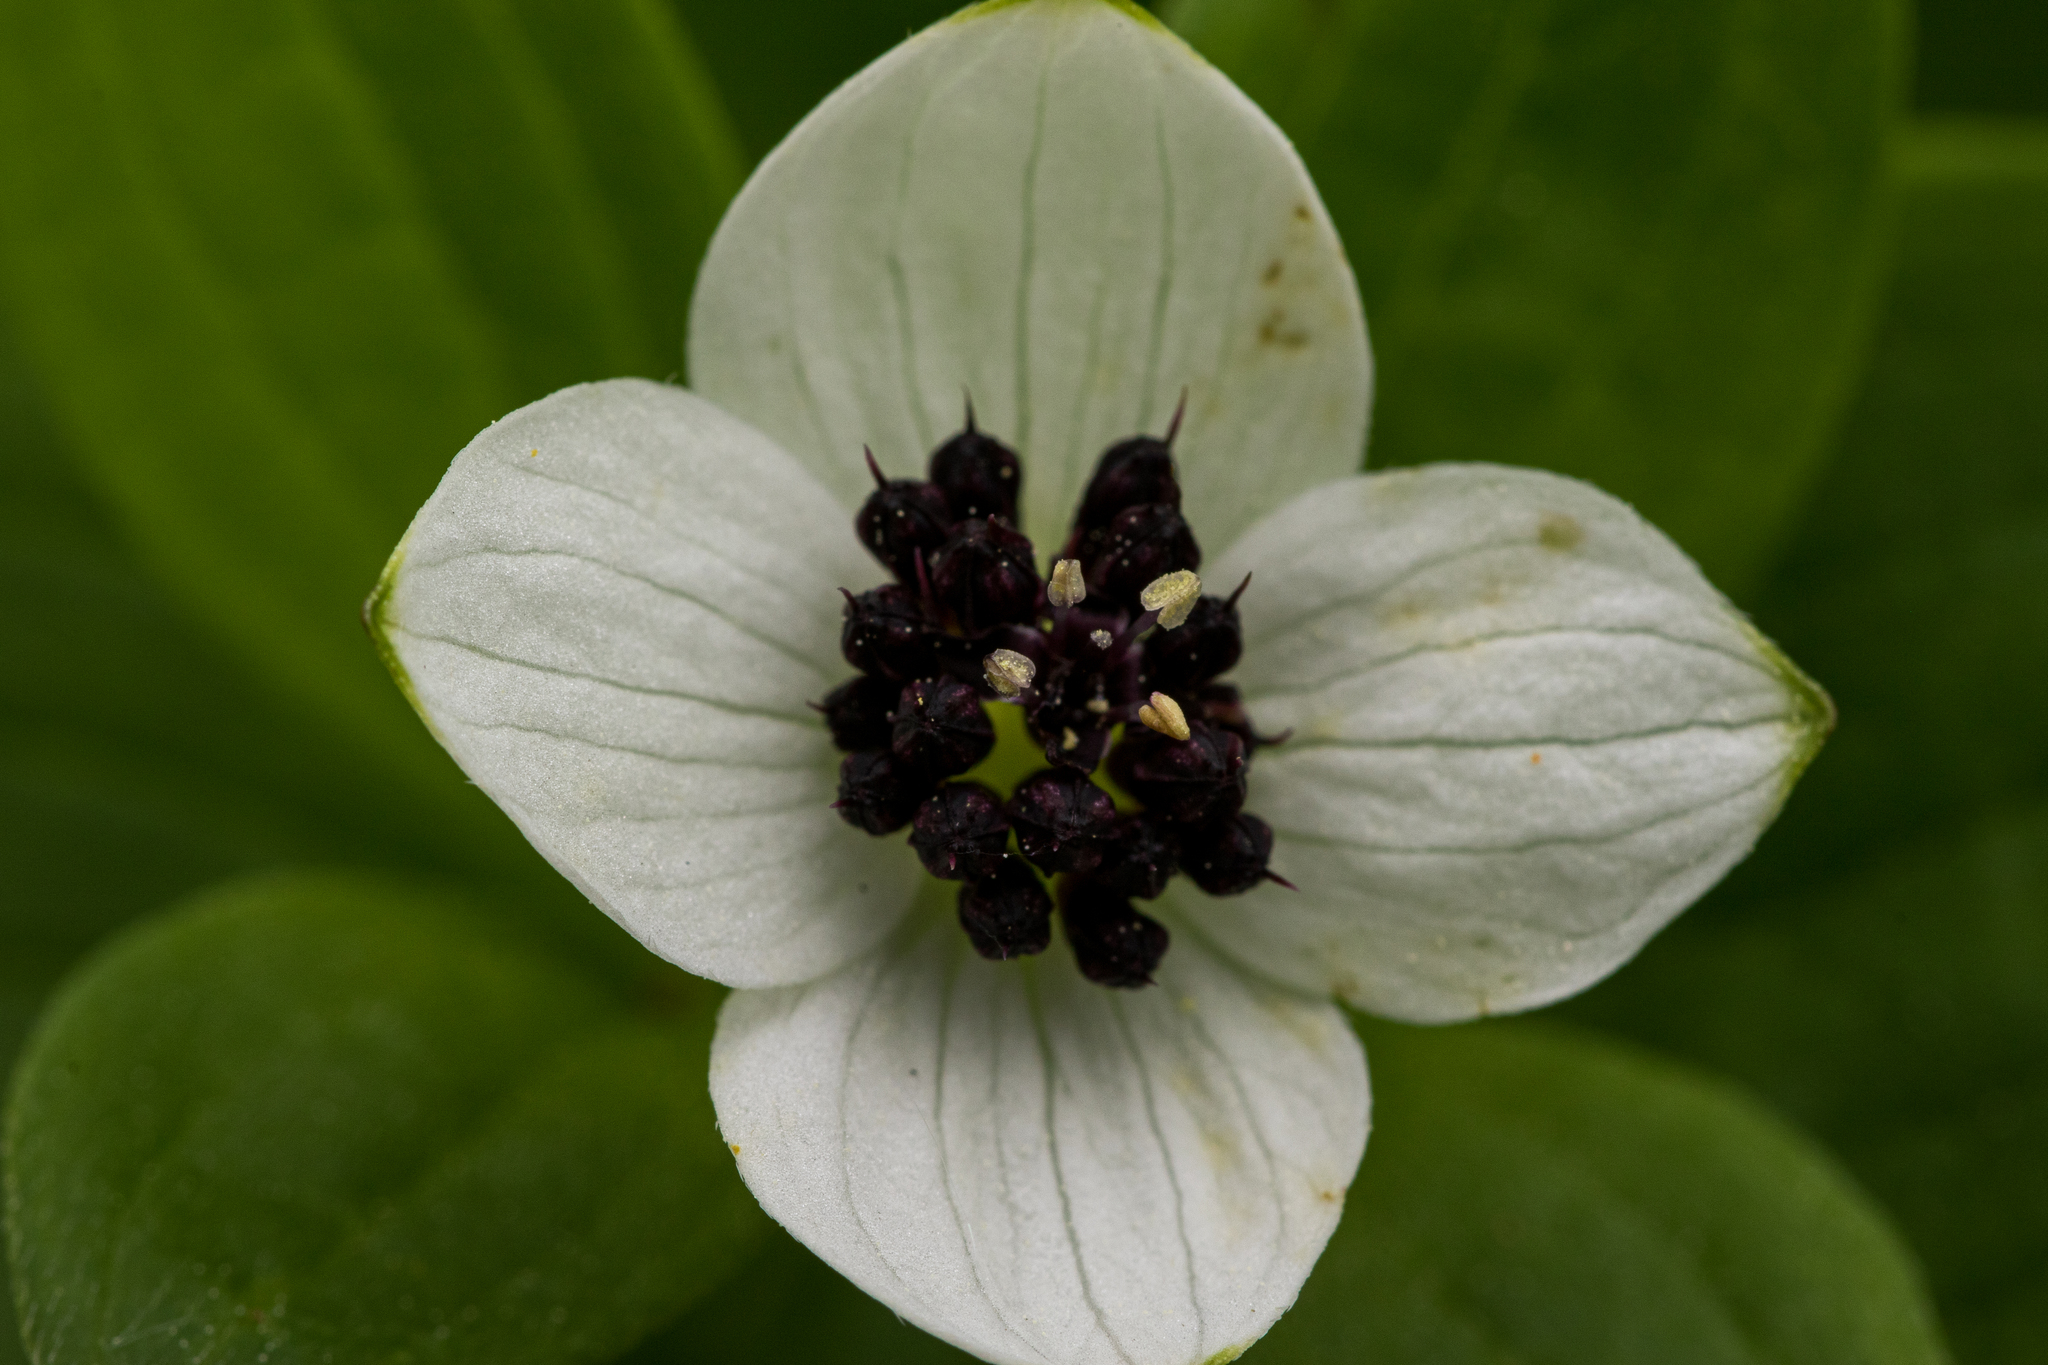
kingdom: Plantae
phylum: Tracheophyta
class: Magnoliopsida
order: Cornales
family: Cornaceae
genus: Cornus
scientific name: Cornus suecica
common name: Dwarf cornel
